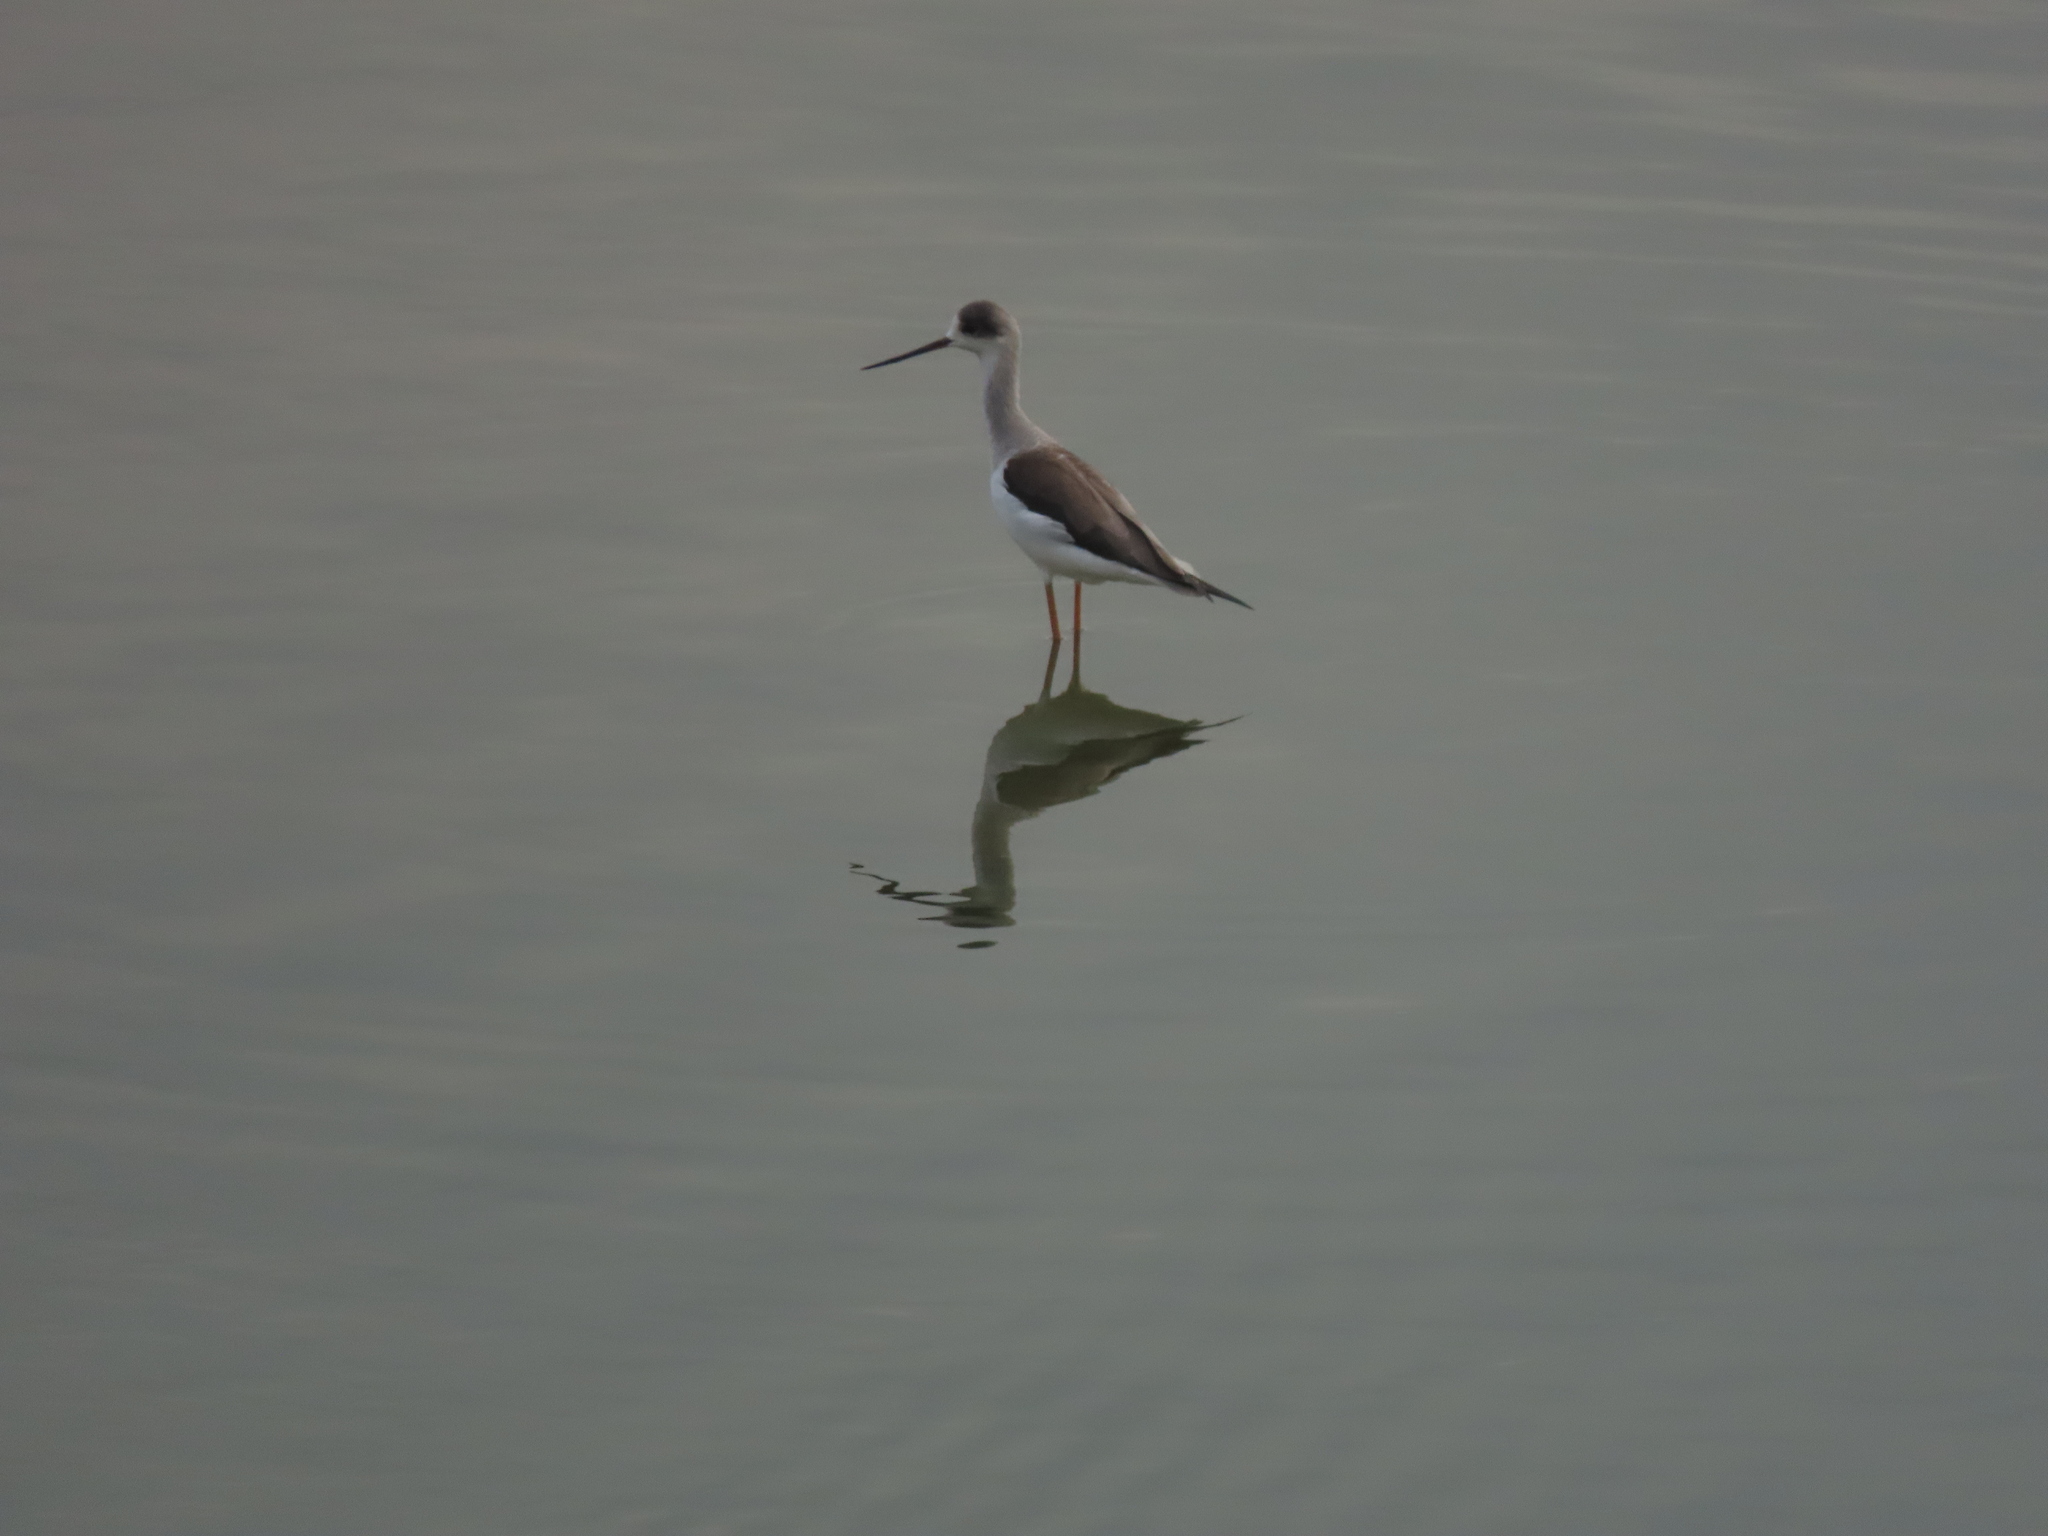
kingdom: Animalia
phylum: Chordata
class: Aves
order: Charadriiformes
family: Recurvirostridae
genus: Himantopus
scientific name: Himantopus himantopus
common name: Black-winged stilt
